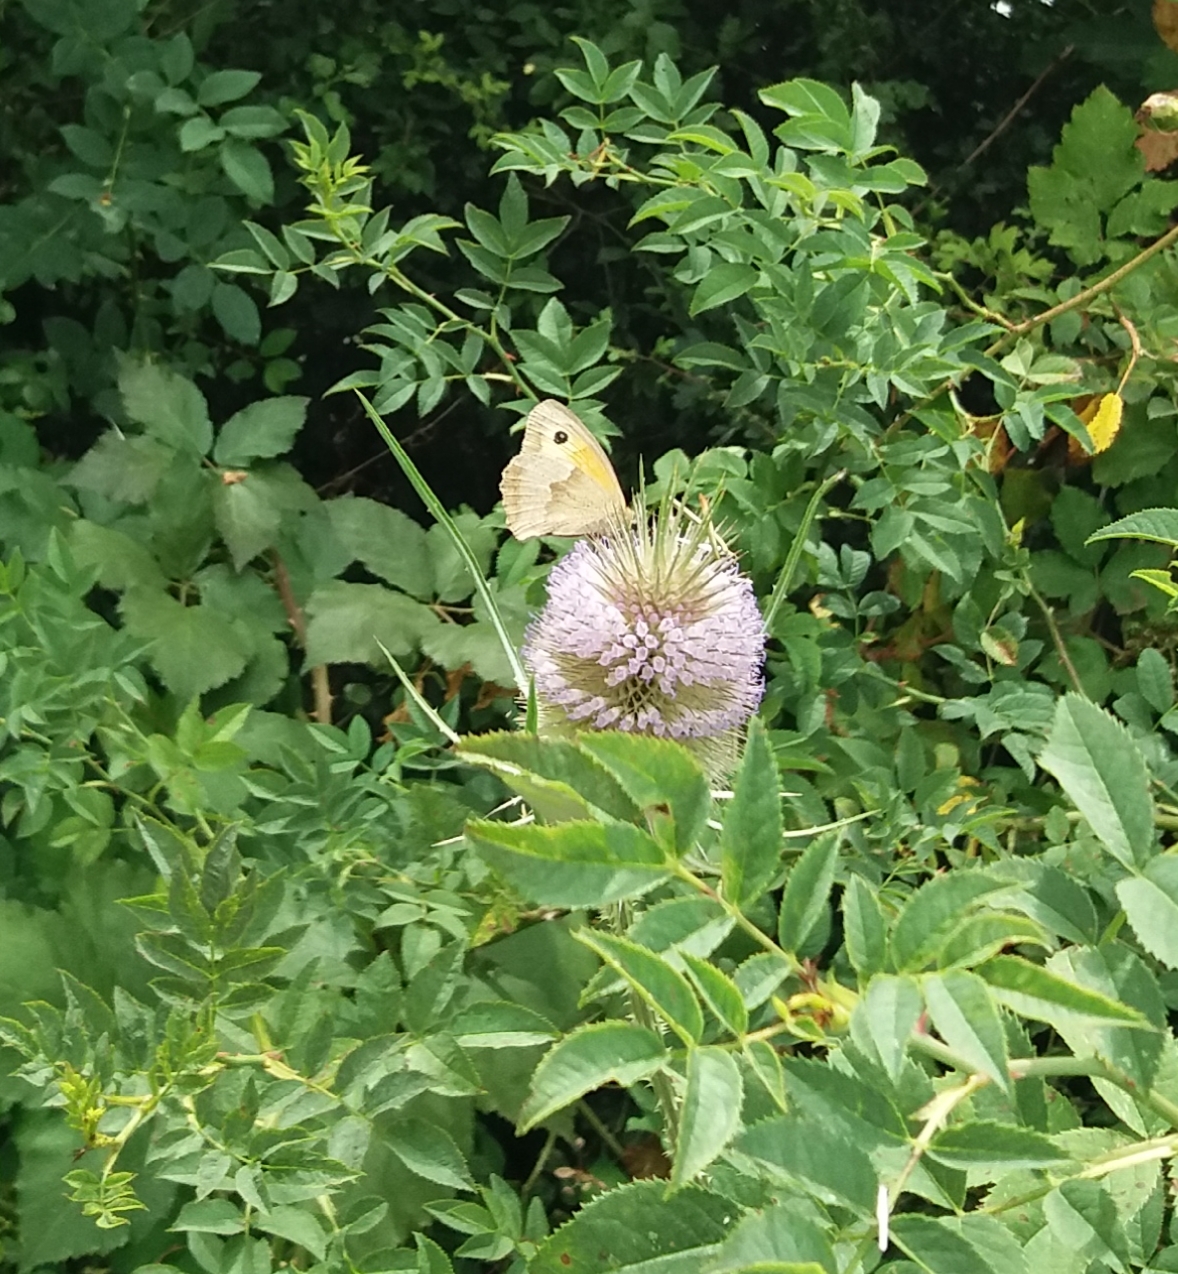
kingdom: Animalia
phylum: Arthropoda
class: Insecta
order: Lepidoptera
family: Nymphalidae
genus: Maniola
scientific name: Maniola jurtina
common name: Meadow brown
